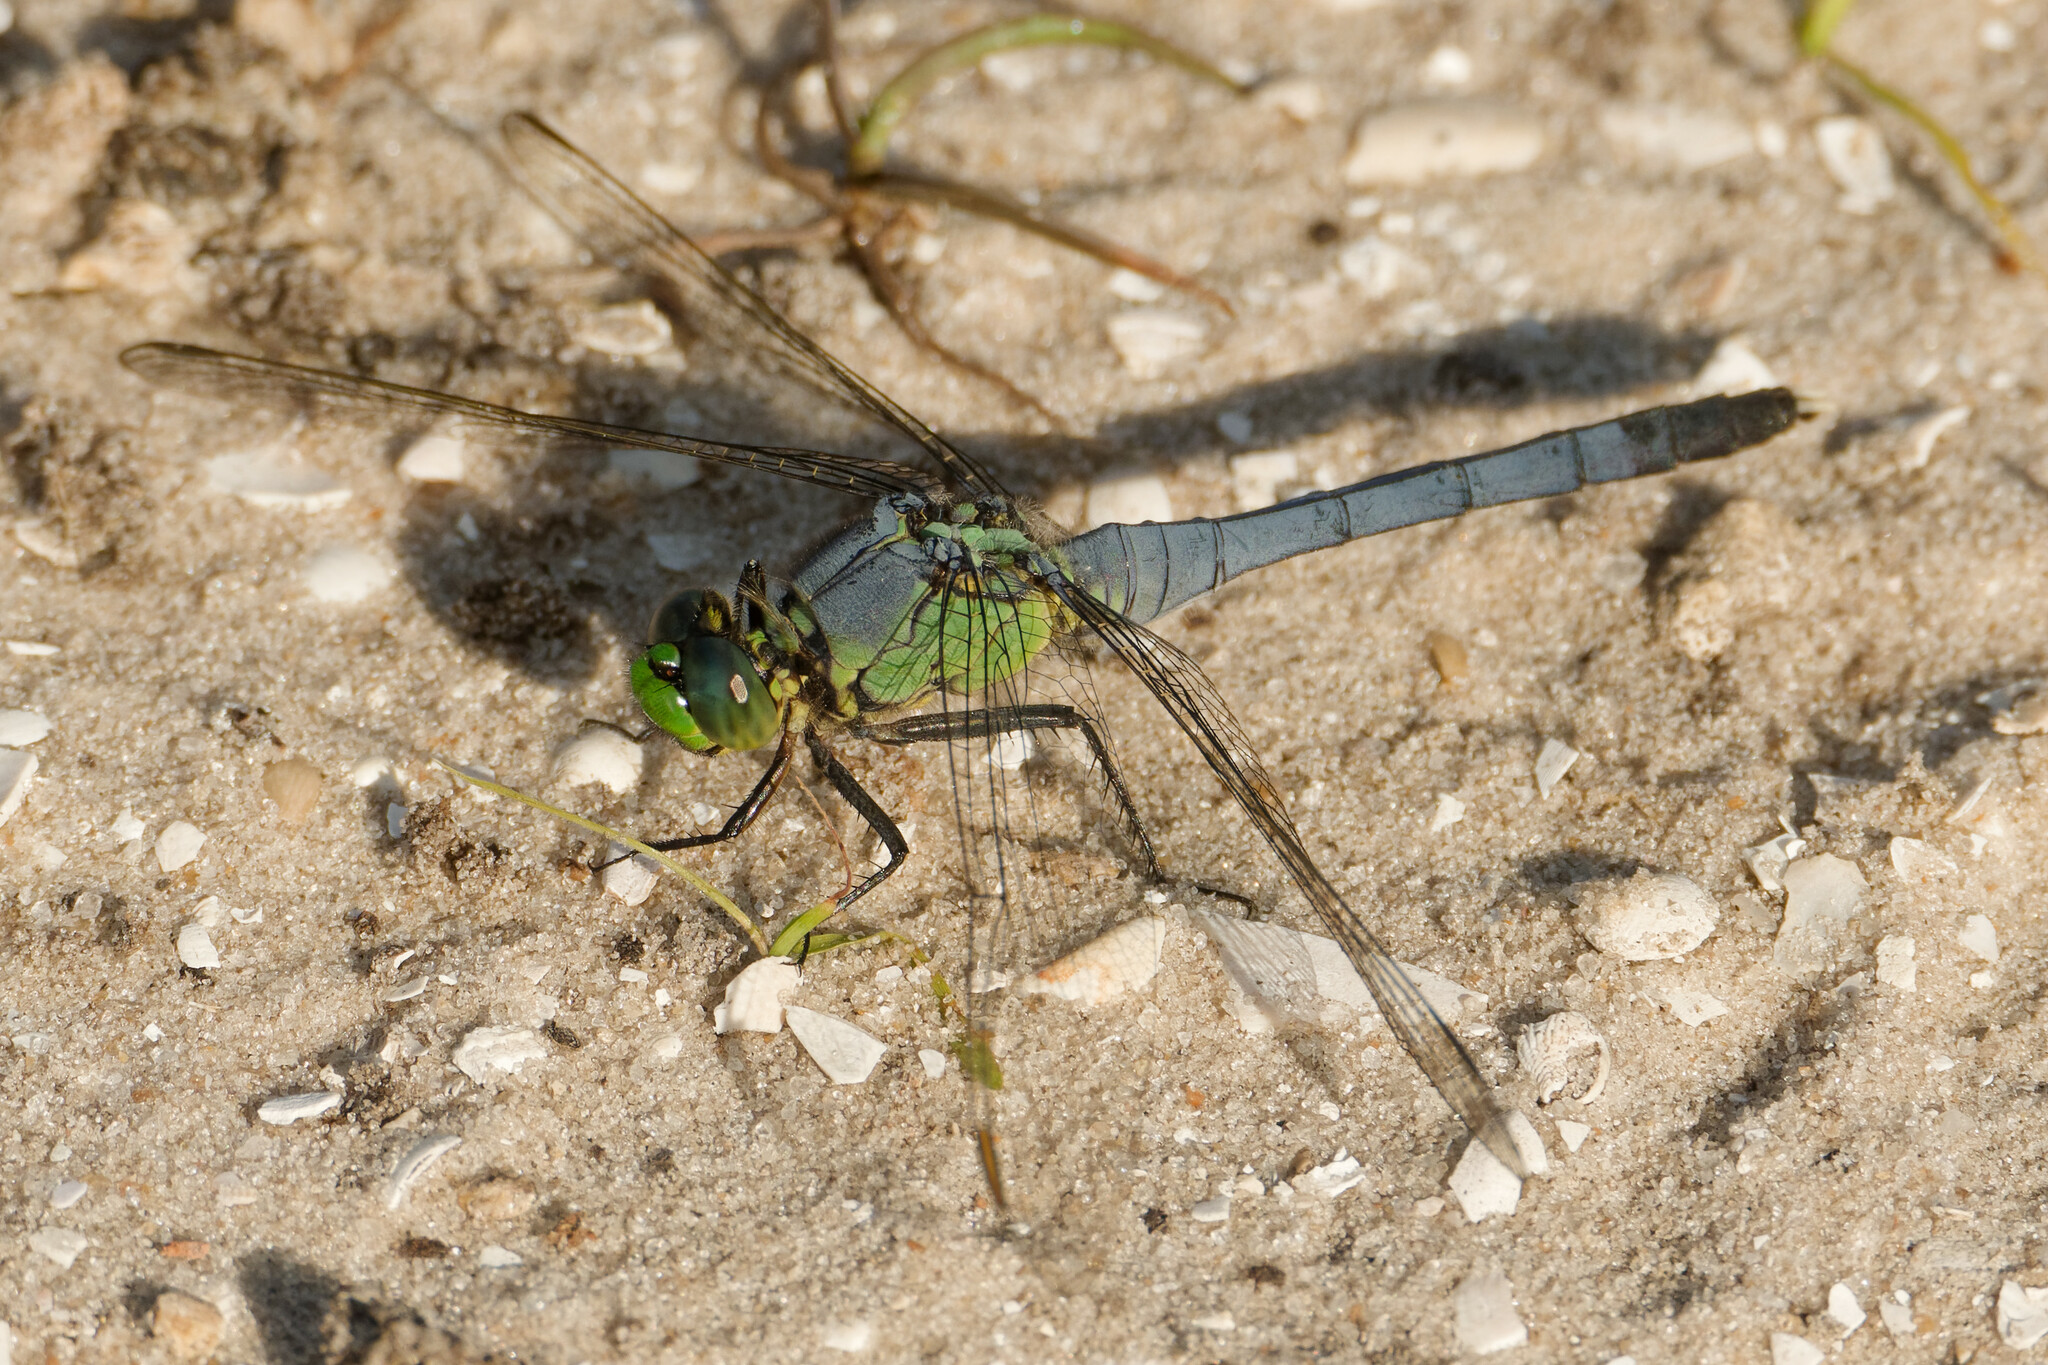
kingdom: Animalia
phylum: Arthropoda
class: Insecta
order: Odonata
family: Libellulidae
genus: Erythemis
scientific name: Erythemis simplicicollis
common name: Eastern pondhawk
